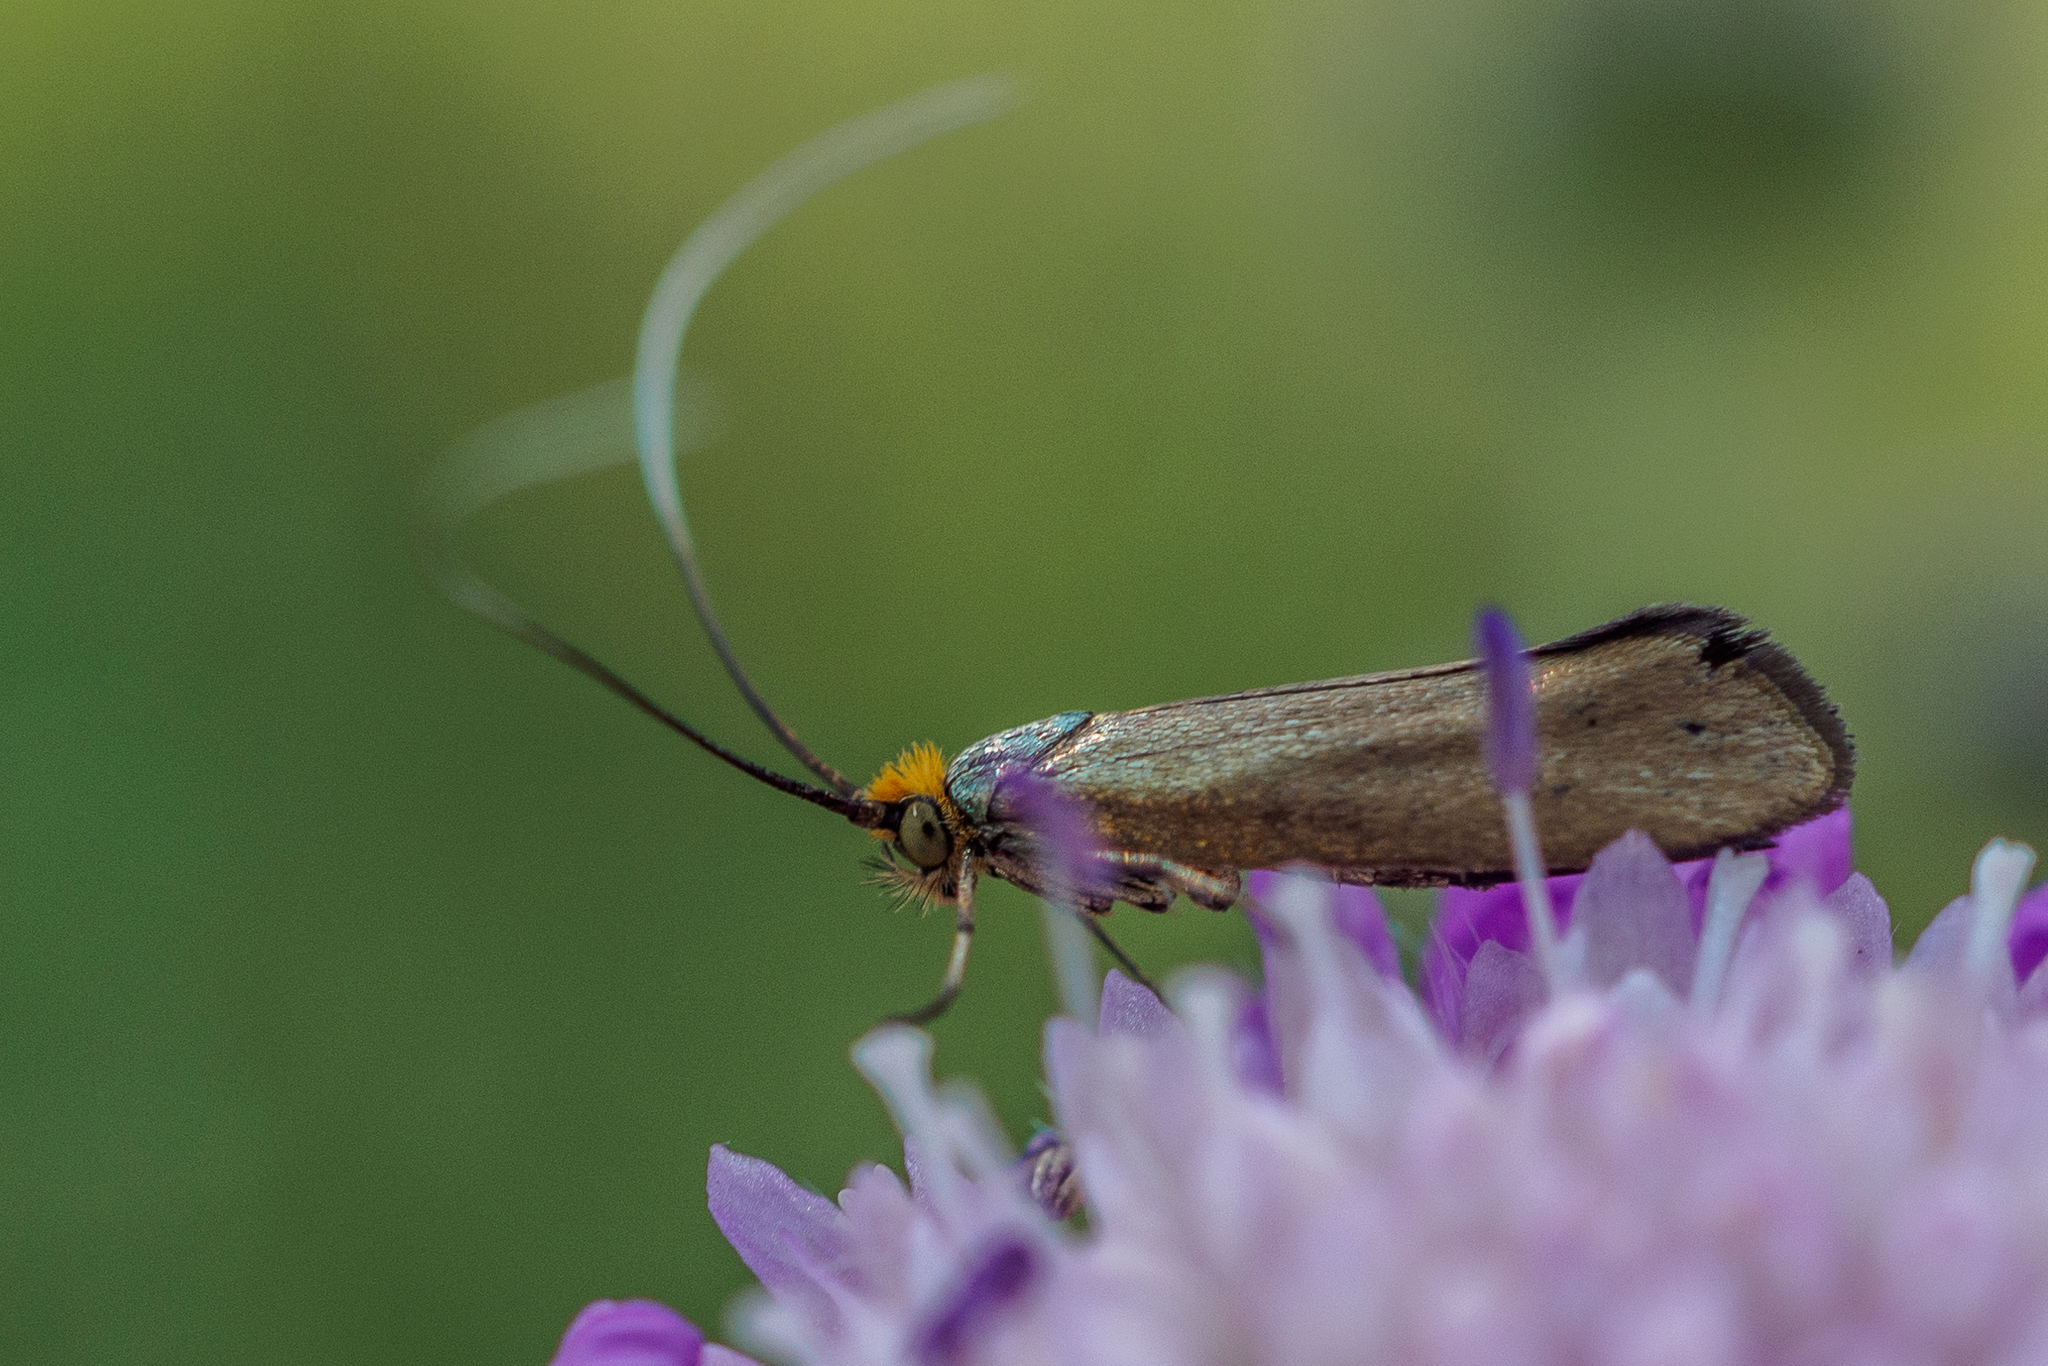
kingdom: Animalia
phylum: Arthropoda
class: Insecta
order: Lepidoptera
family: Adelidae
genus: Nemophora
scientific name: Nemophora metallica
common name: Brassy long-horn
